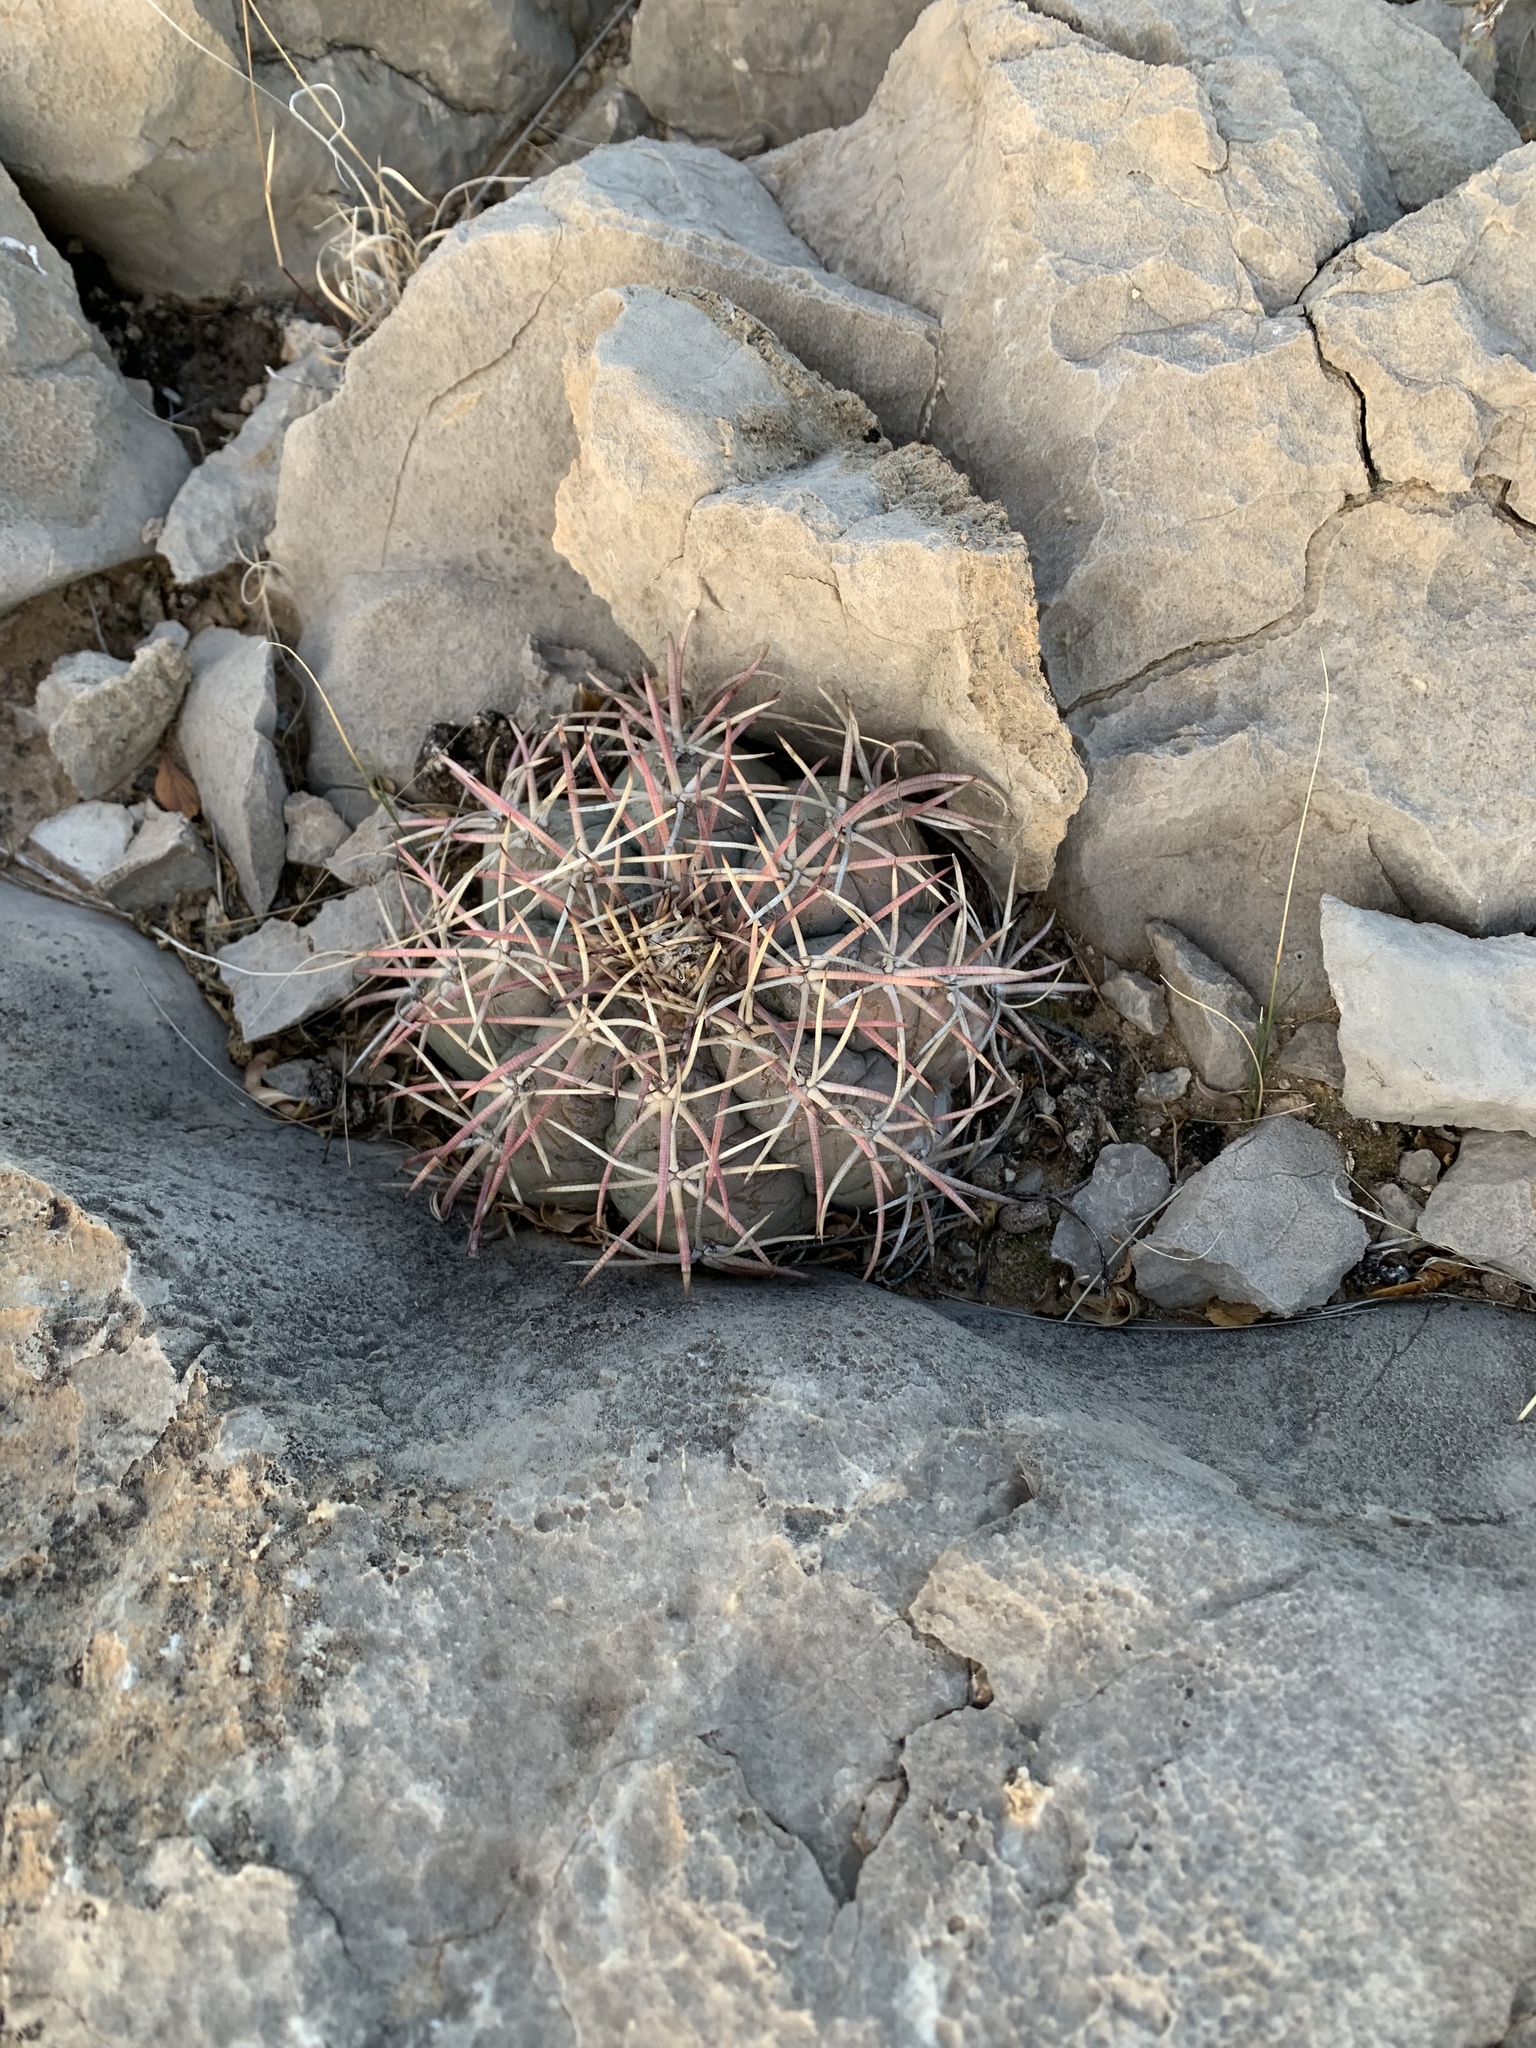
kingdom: Plantae
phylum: Tracheophyta
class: Magnoliopsida
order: Caryophyllales
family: Cactaceae
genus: Echinocactus
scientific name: Echinocactus horizonthalonius
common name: Devilshead
